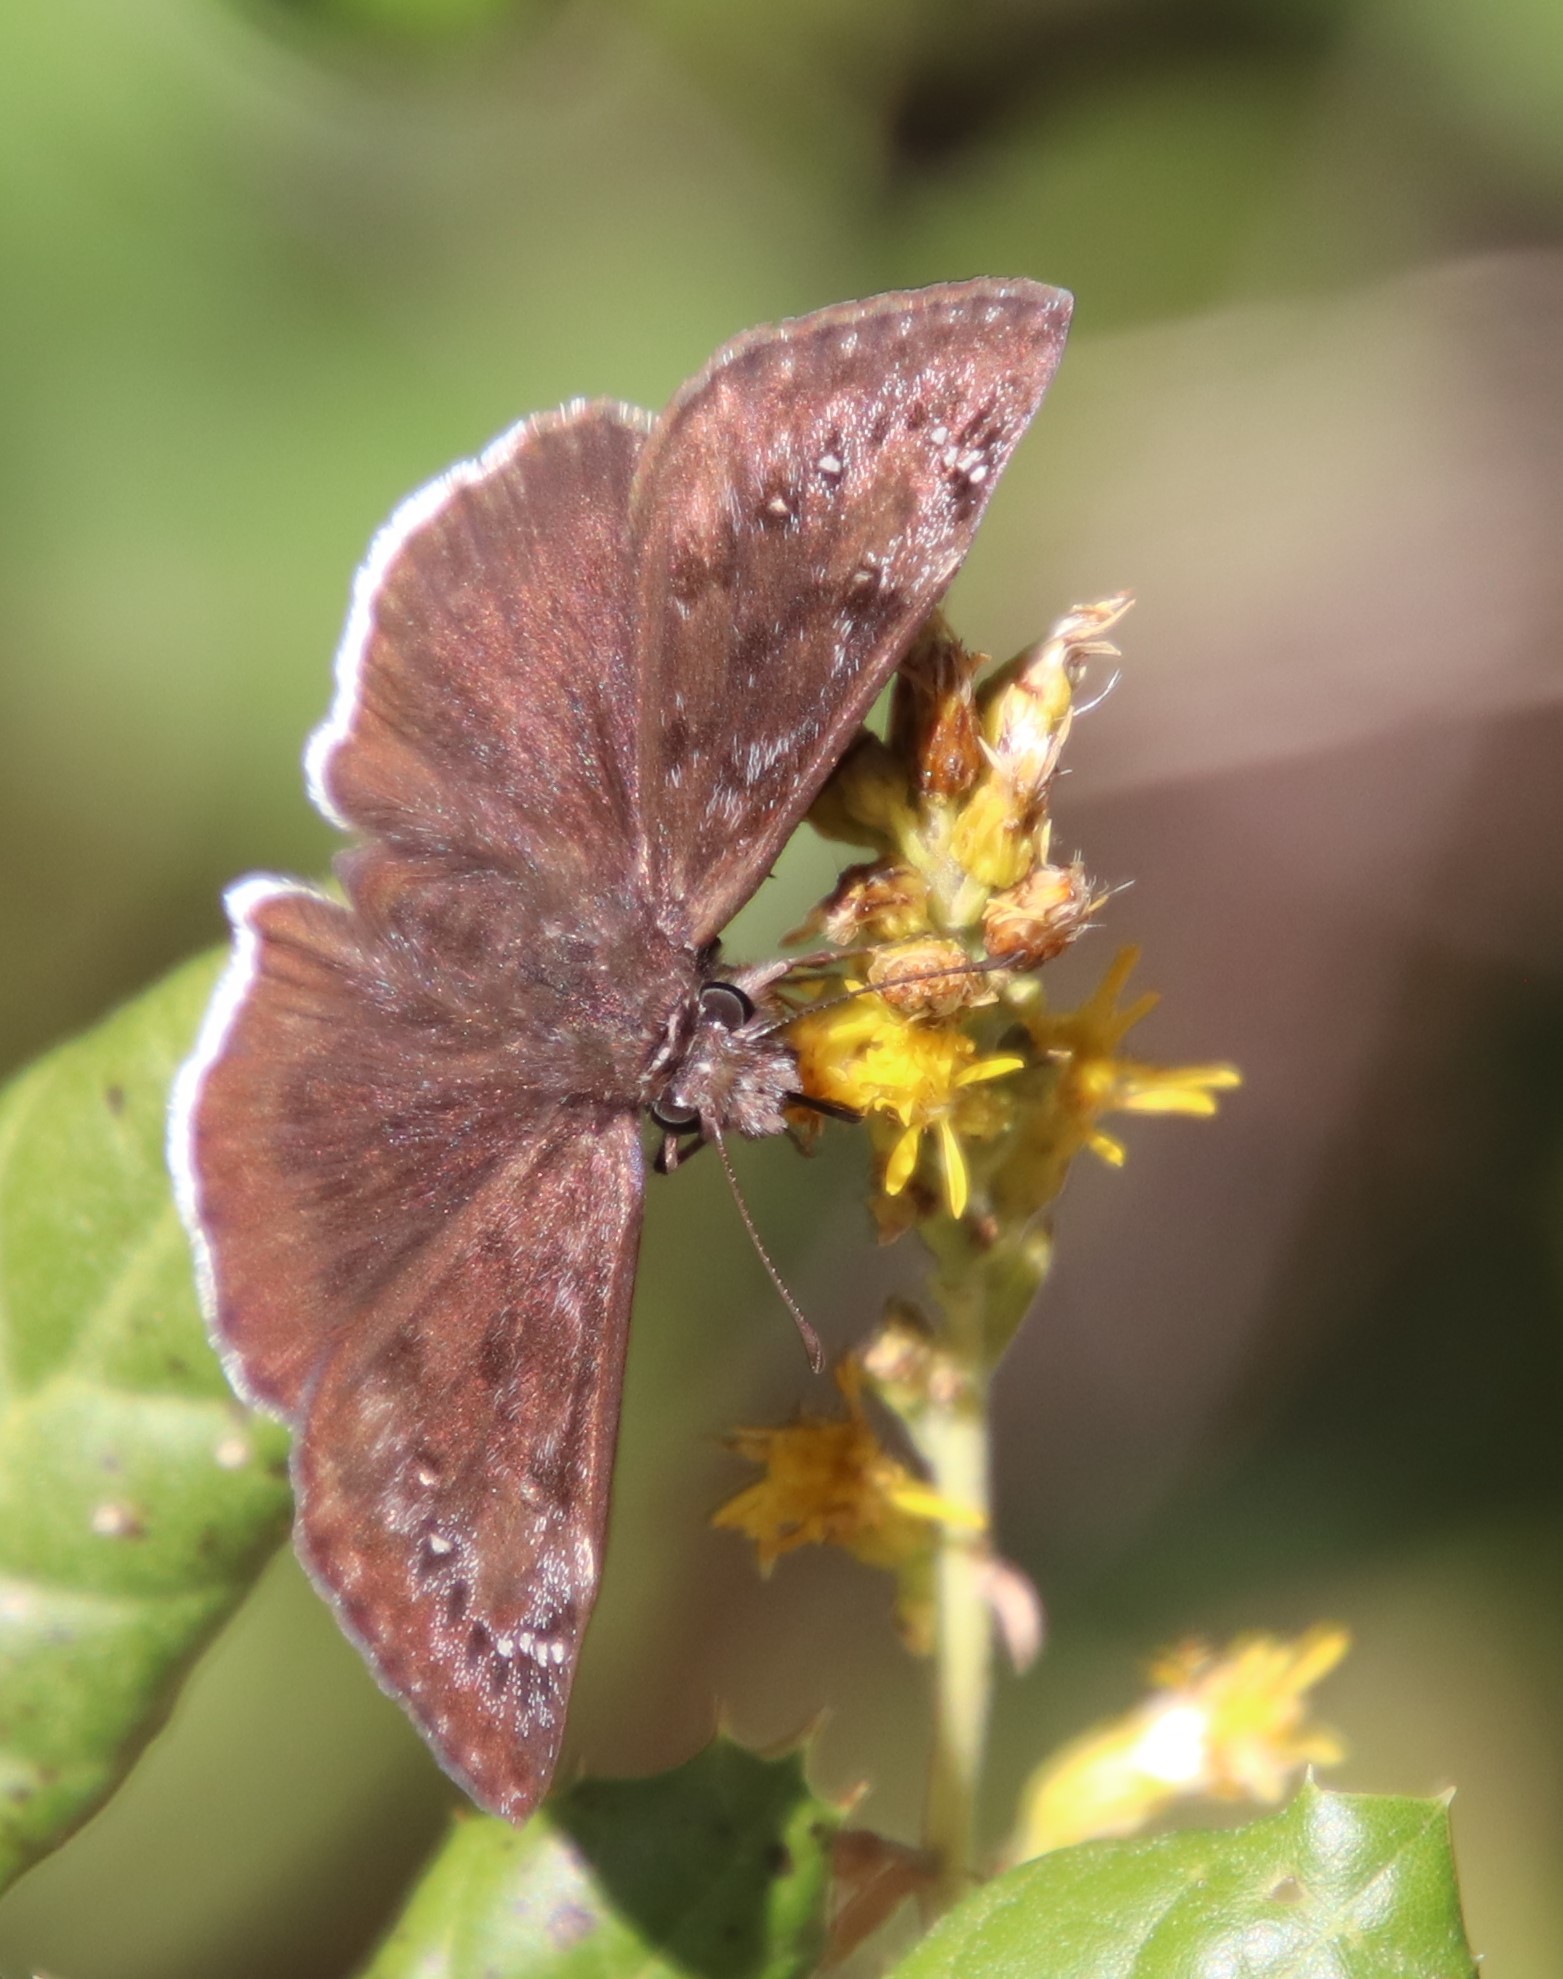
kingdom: Animalia
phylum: Arthropoda
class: Insecta
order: Lepidoptera
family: Hesperiidae
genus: Erynnis
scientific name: Erynnis tristis
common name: Mournful duskywing
